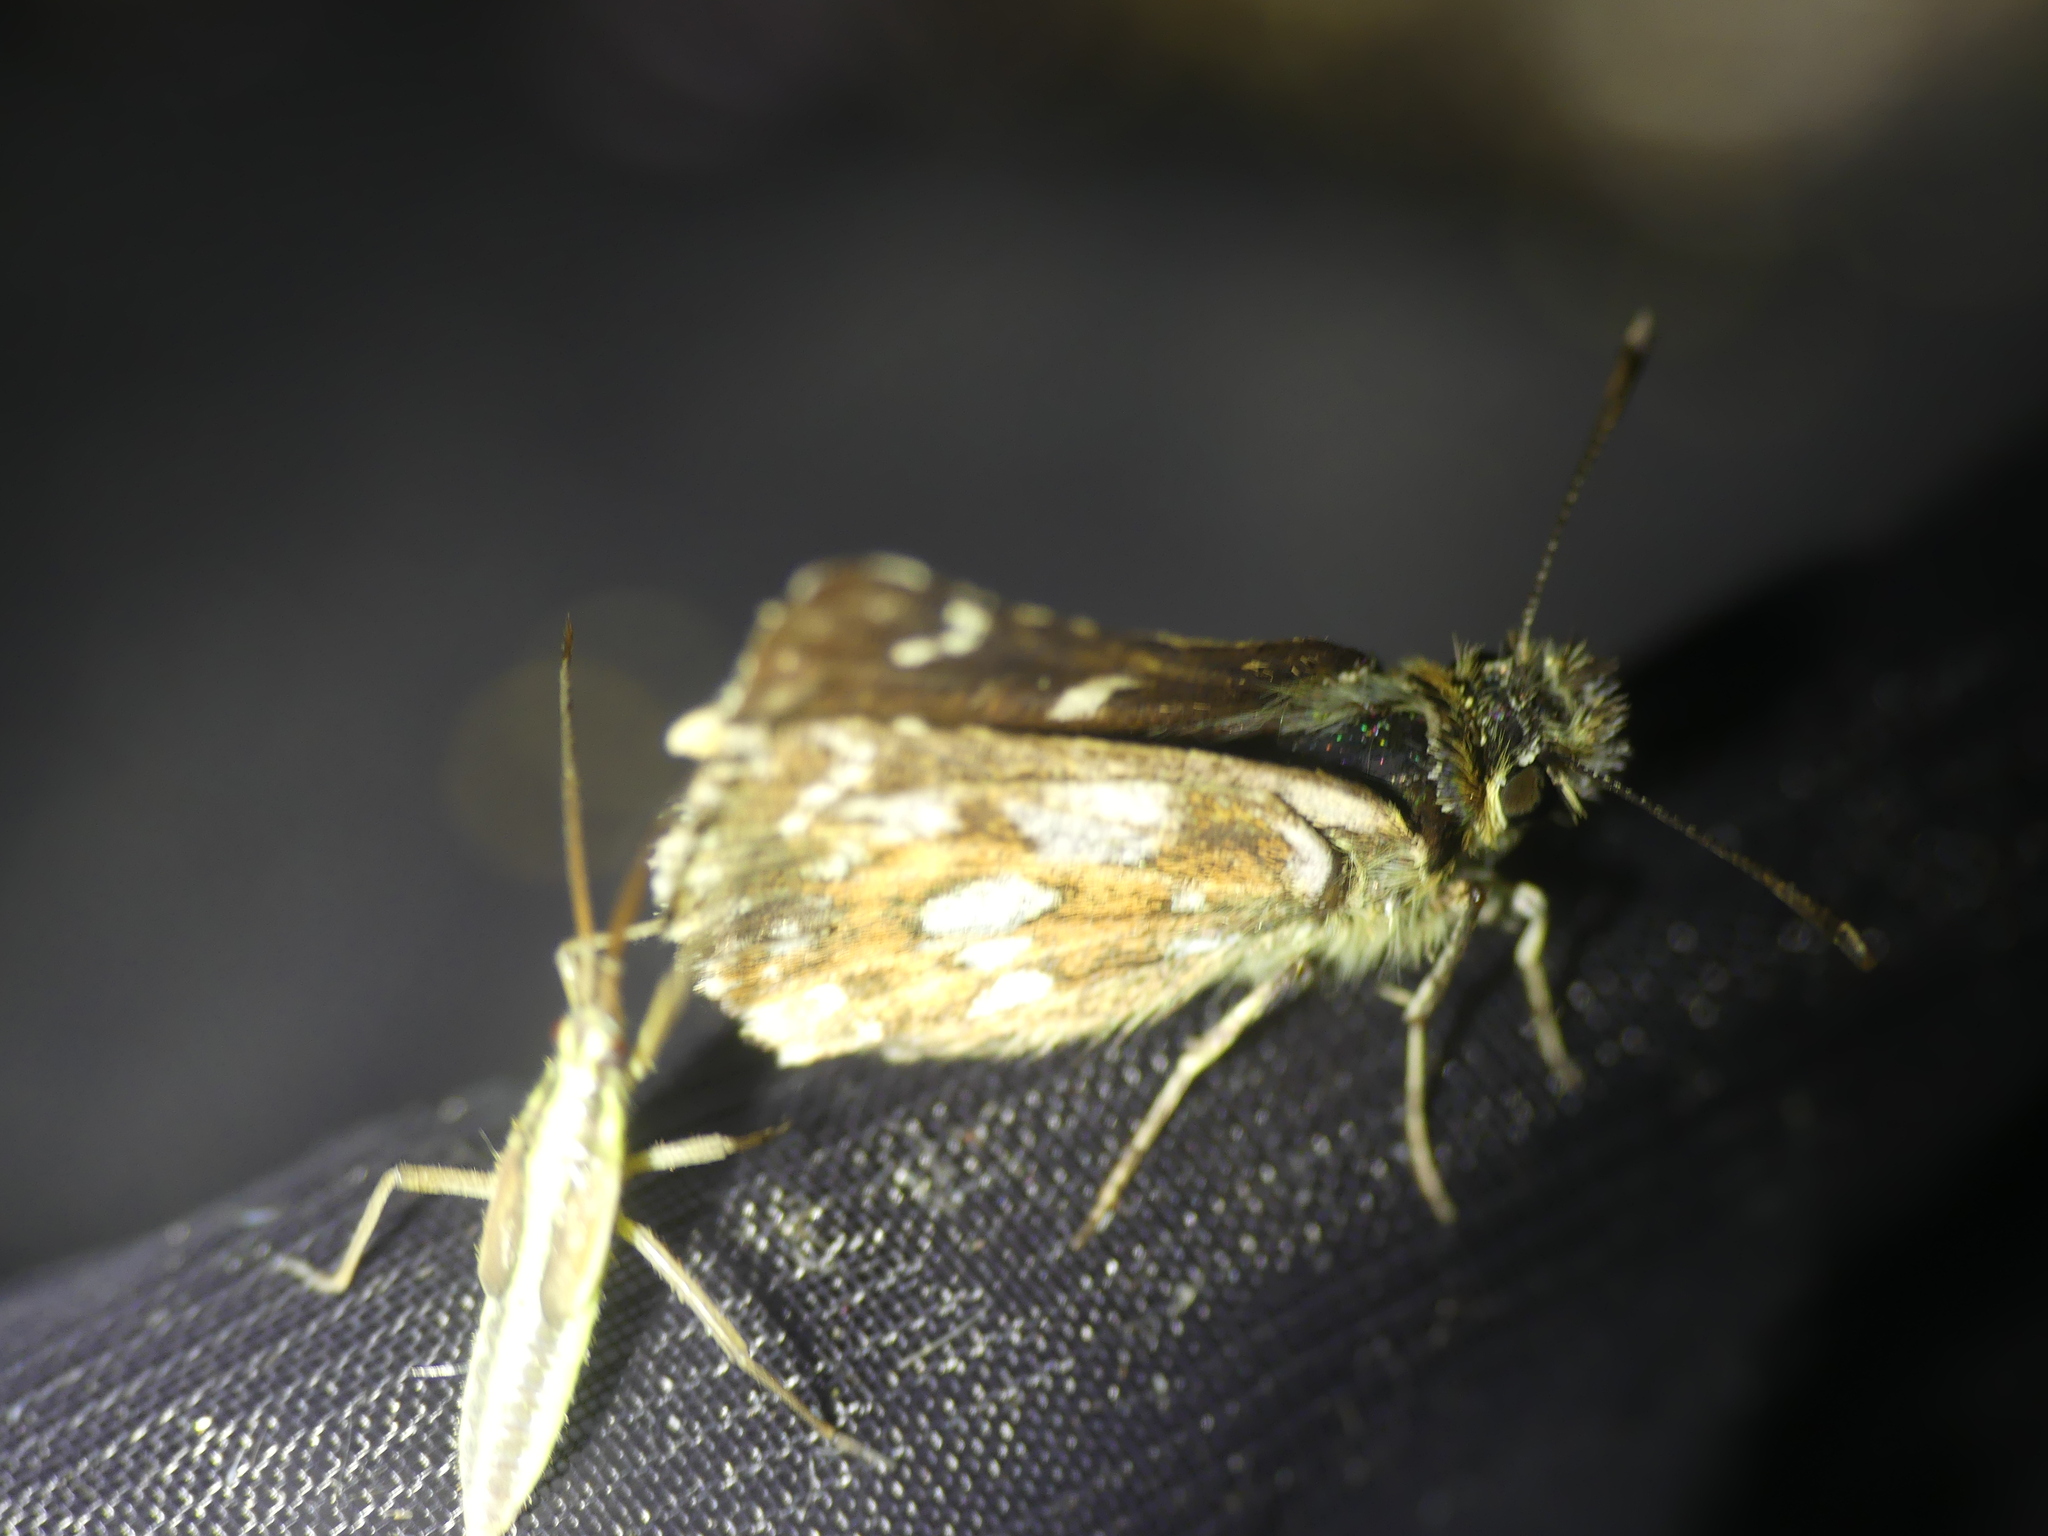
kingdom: Animalia
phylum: Arthropoda
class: Insecta
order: Lepidoptera
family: Hesperiidae
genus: Spialia
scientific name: Spialia sertorius
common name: Red underwing skipper
